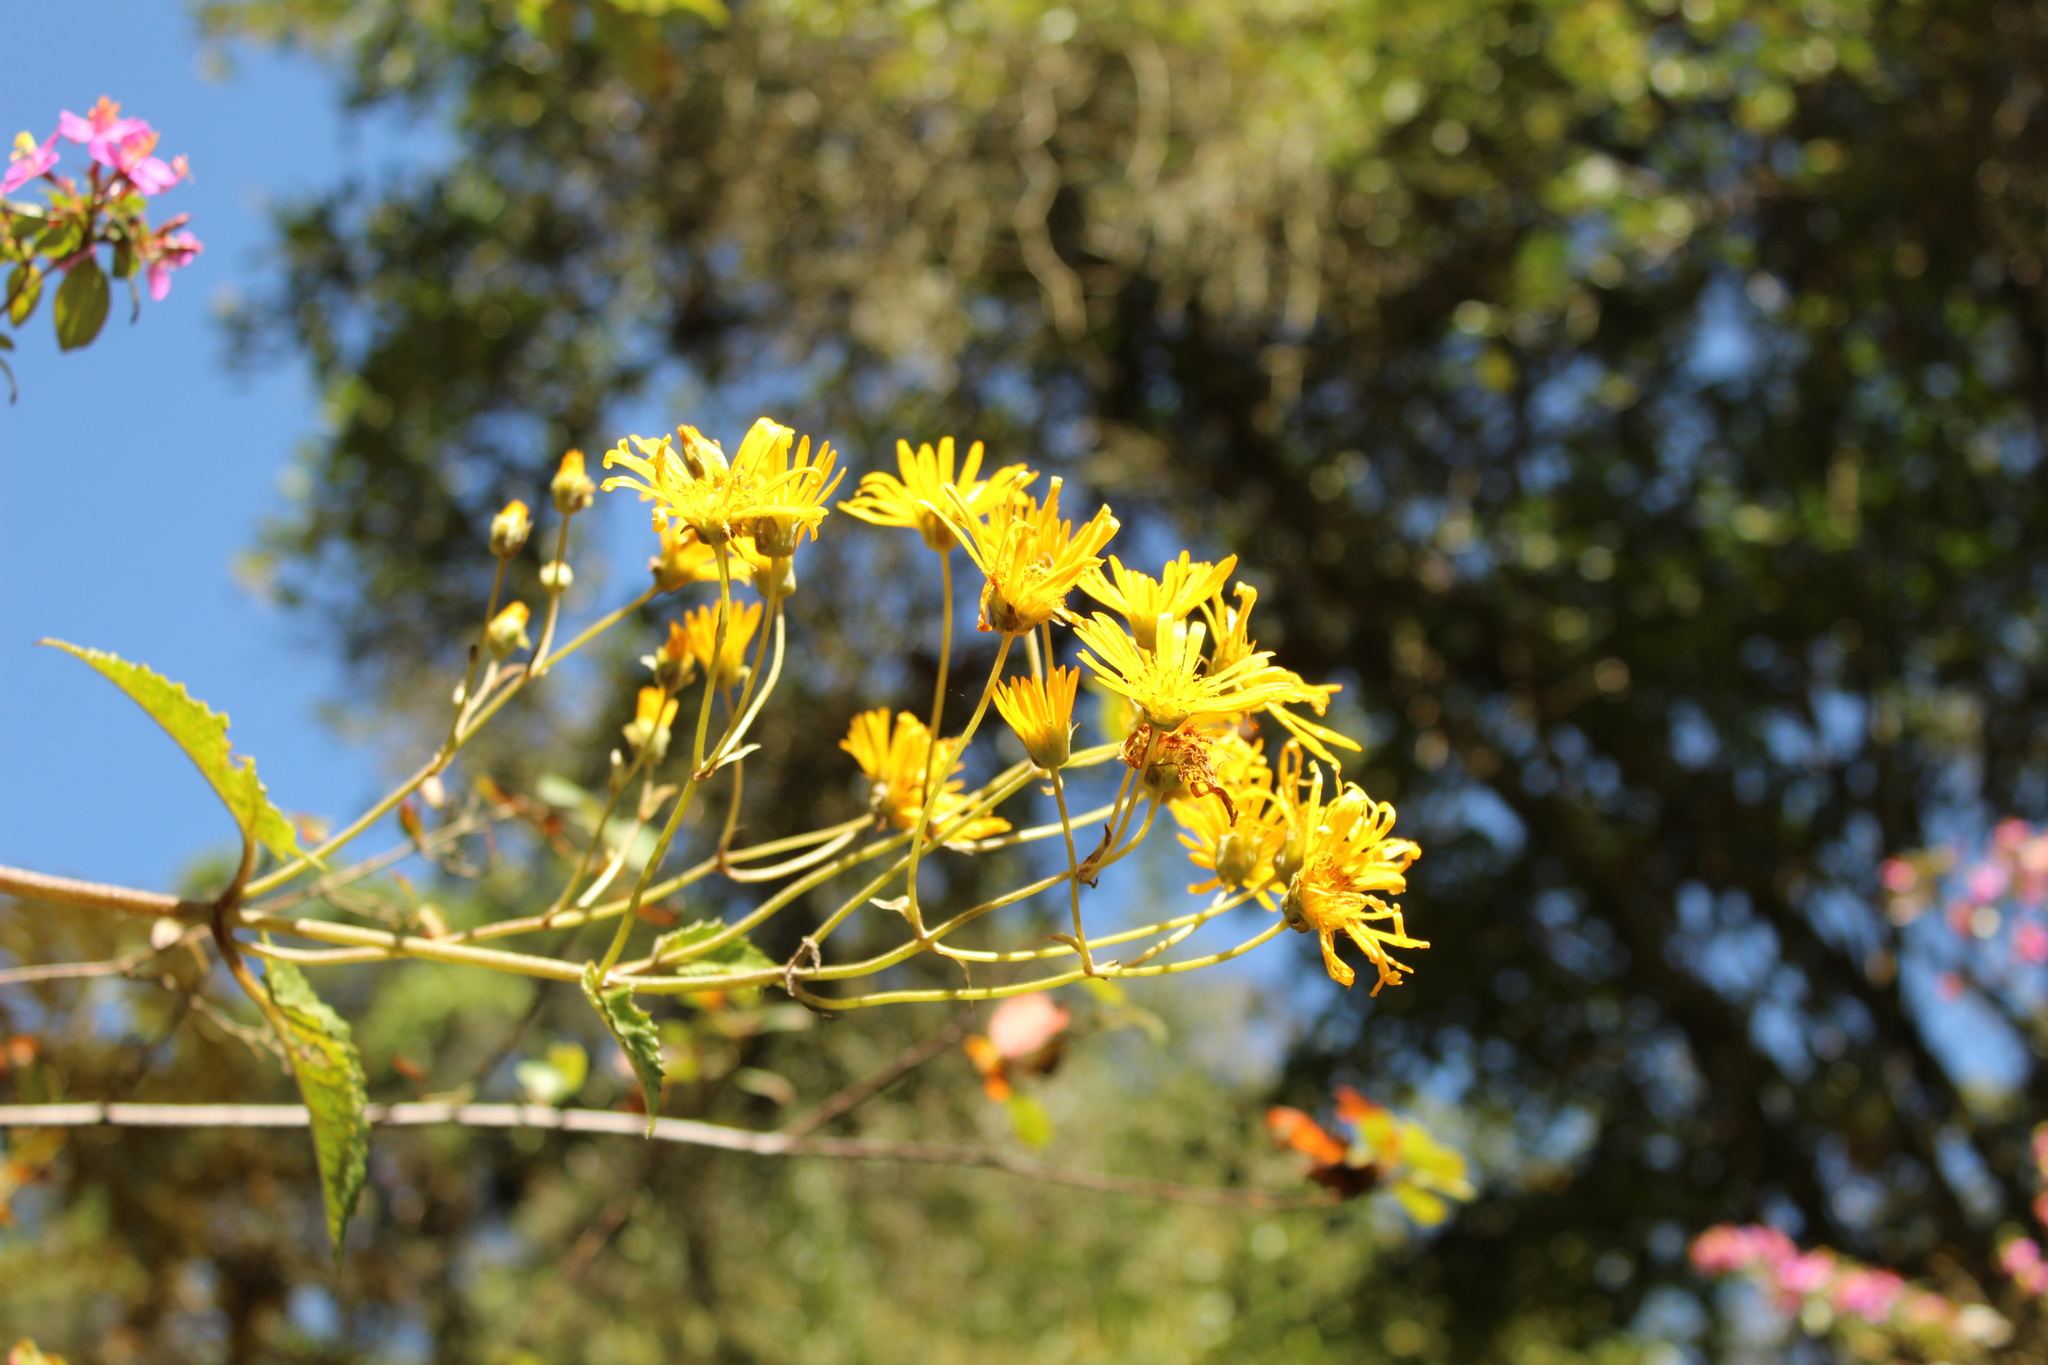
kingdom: Plantae
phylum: Tracheophyta
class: Magnoliopsida
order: Asterales
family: Asteraceae
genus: Munnozia
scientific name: Munnozia senecionidis
